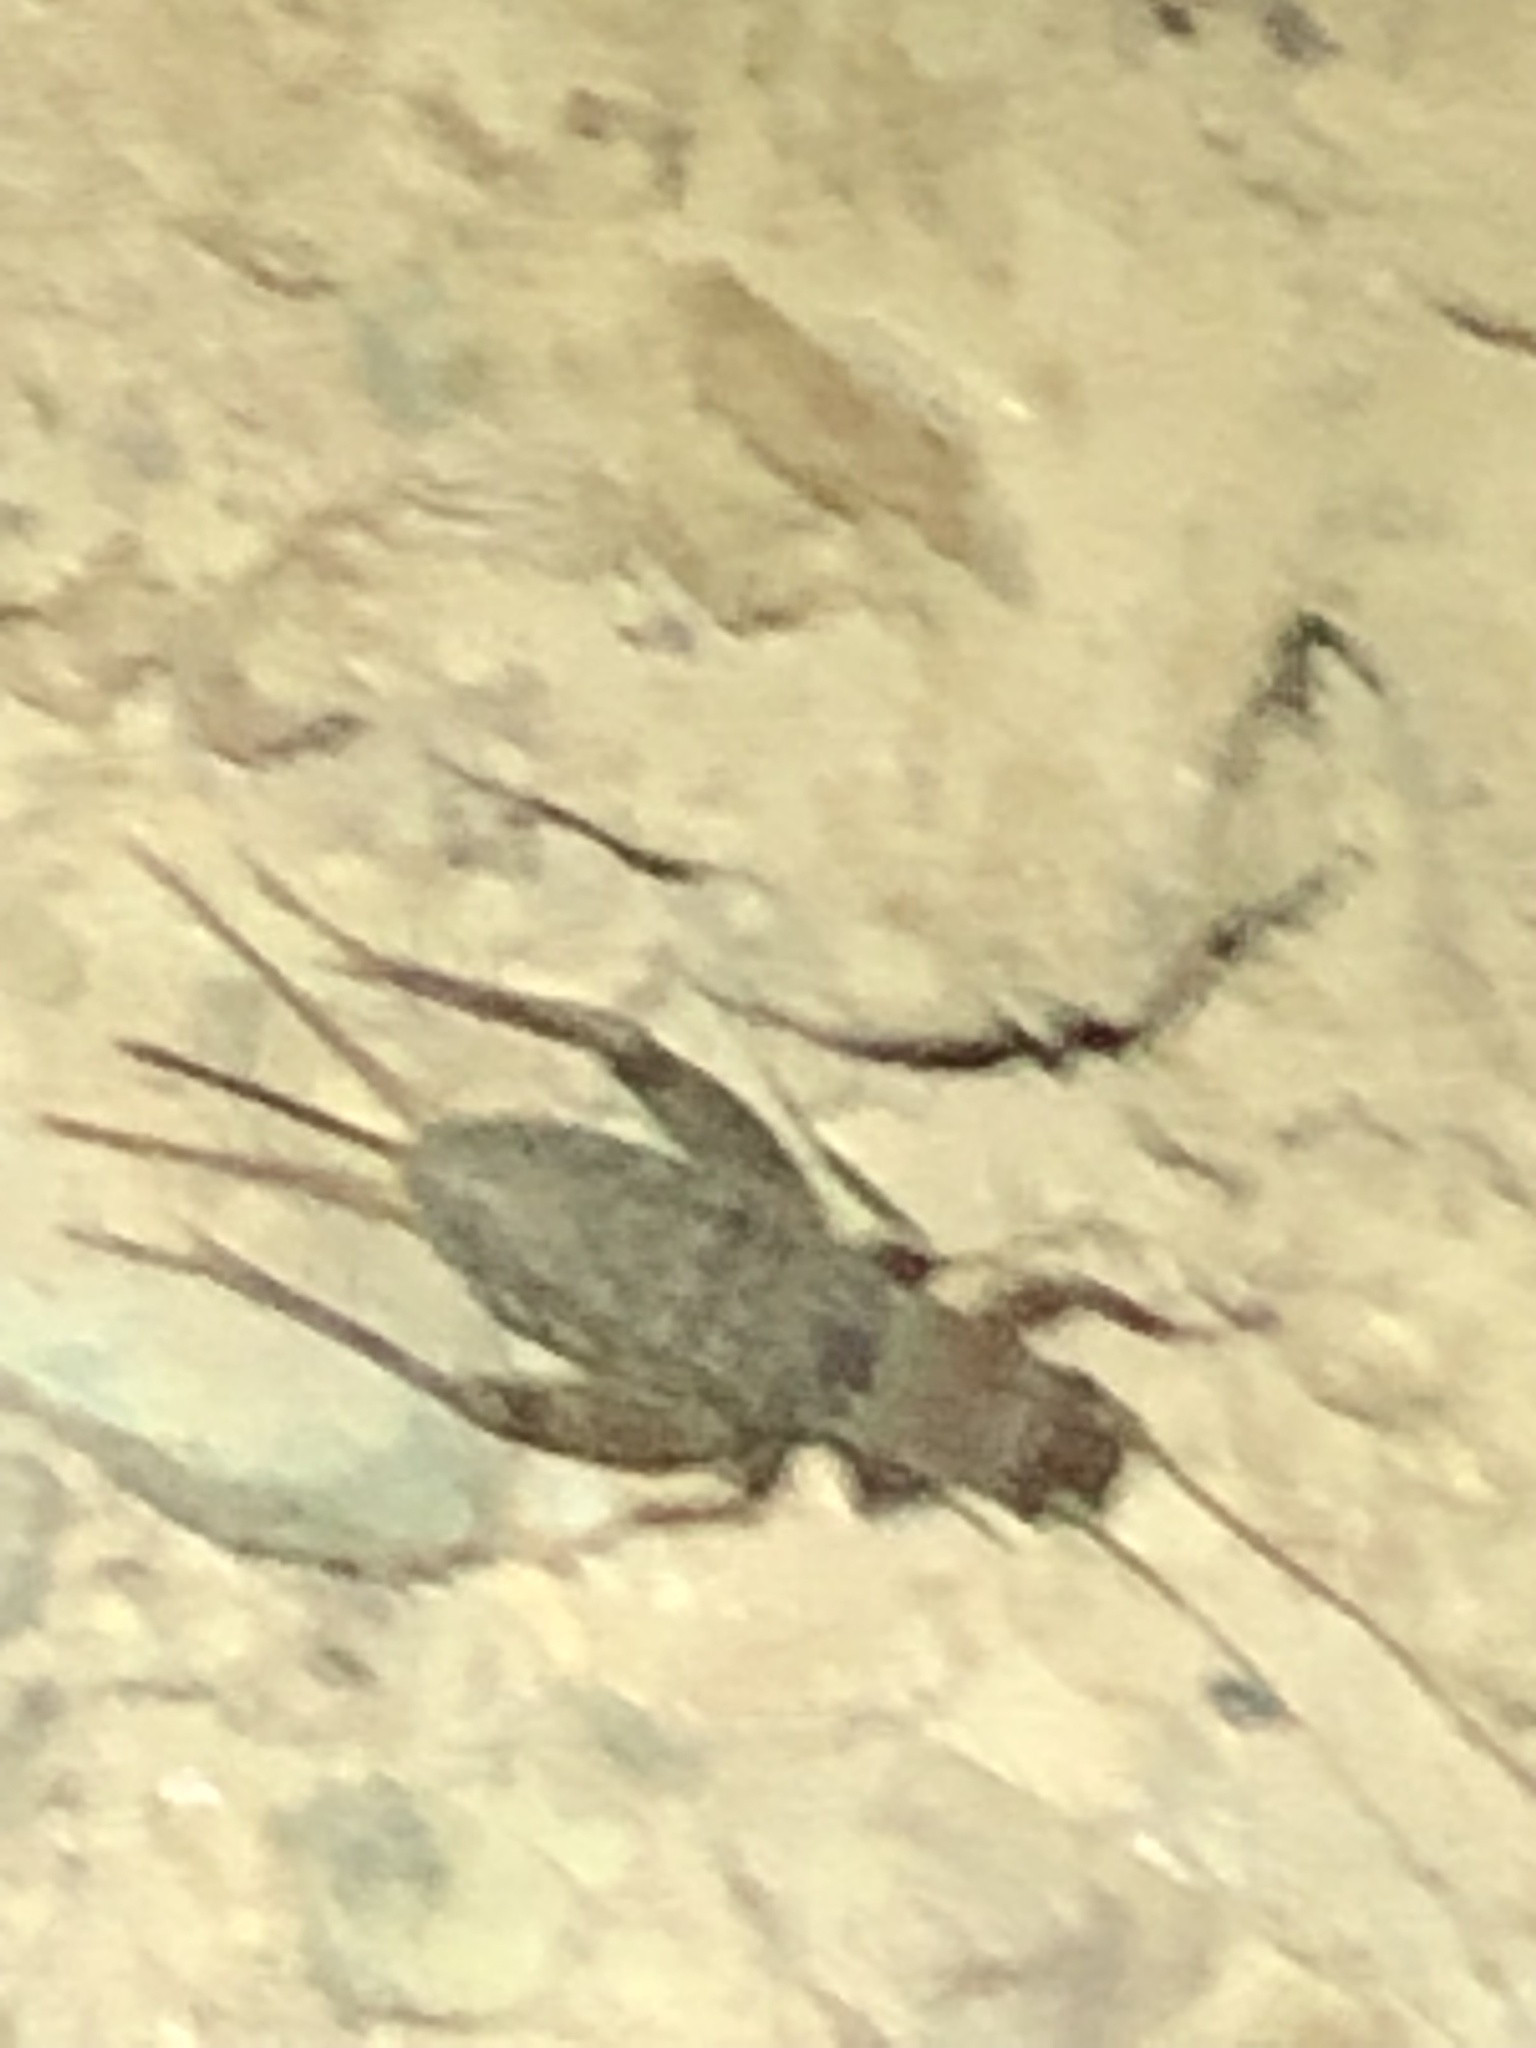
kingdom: Animalia
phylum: Arthropoda
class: Insecta
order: Orthoptera
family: Mogoplistidae
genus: Hoplosphyrum
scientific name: Hoplosphyrum boreale
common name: Long-winged scaly cricket
